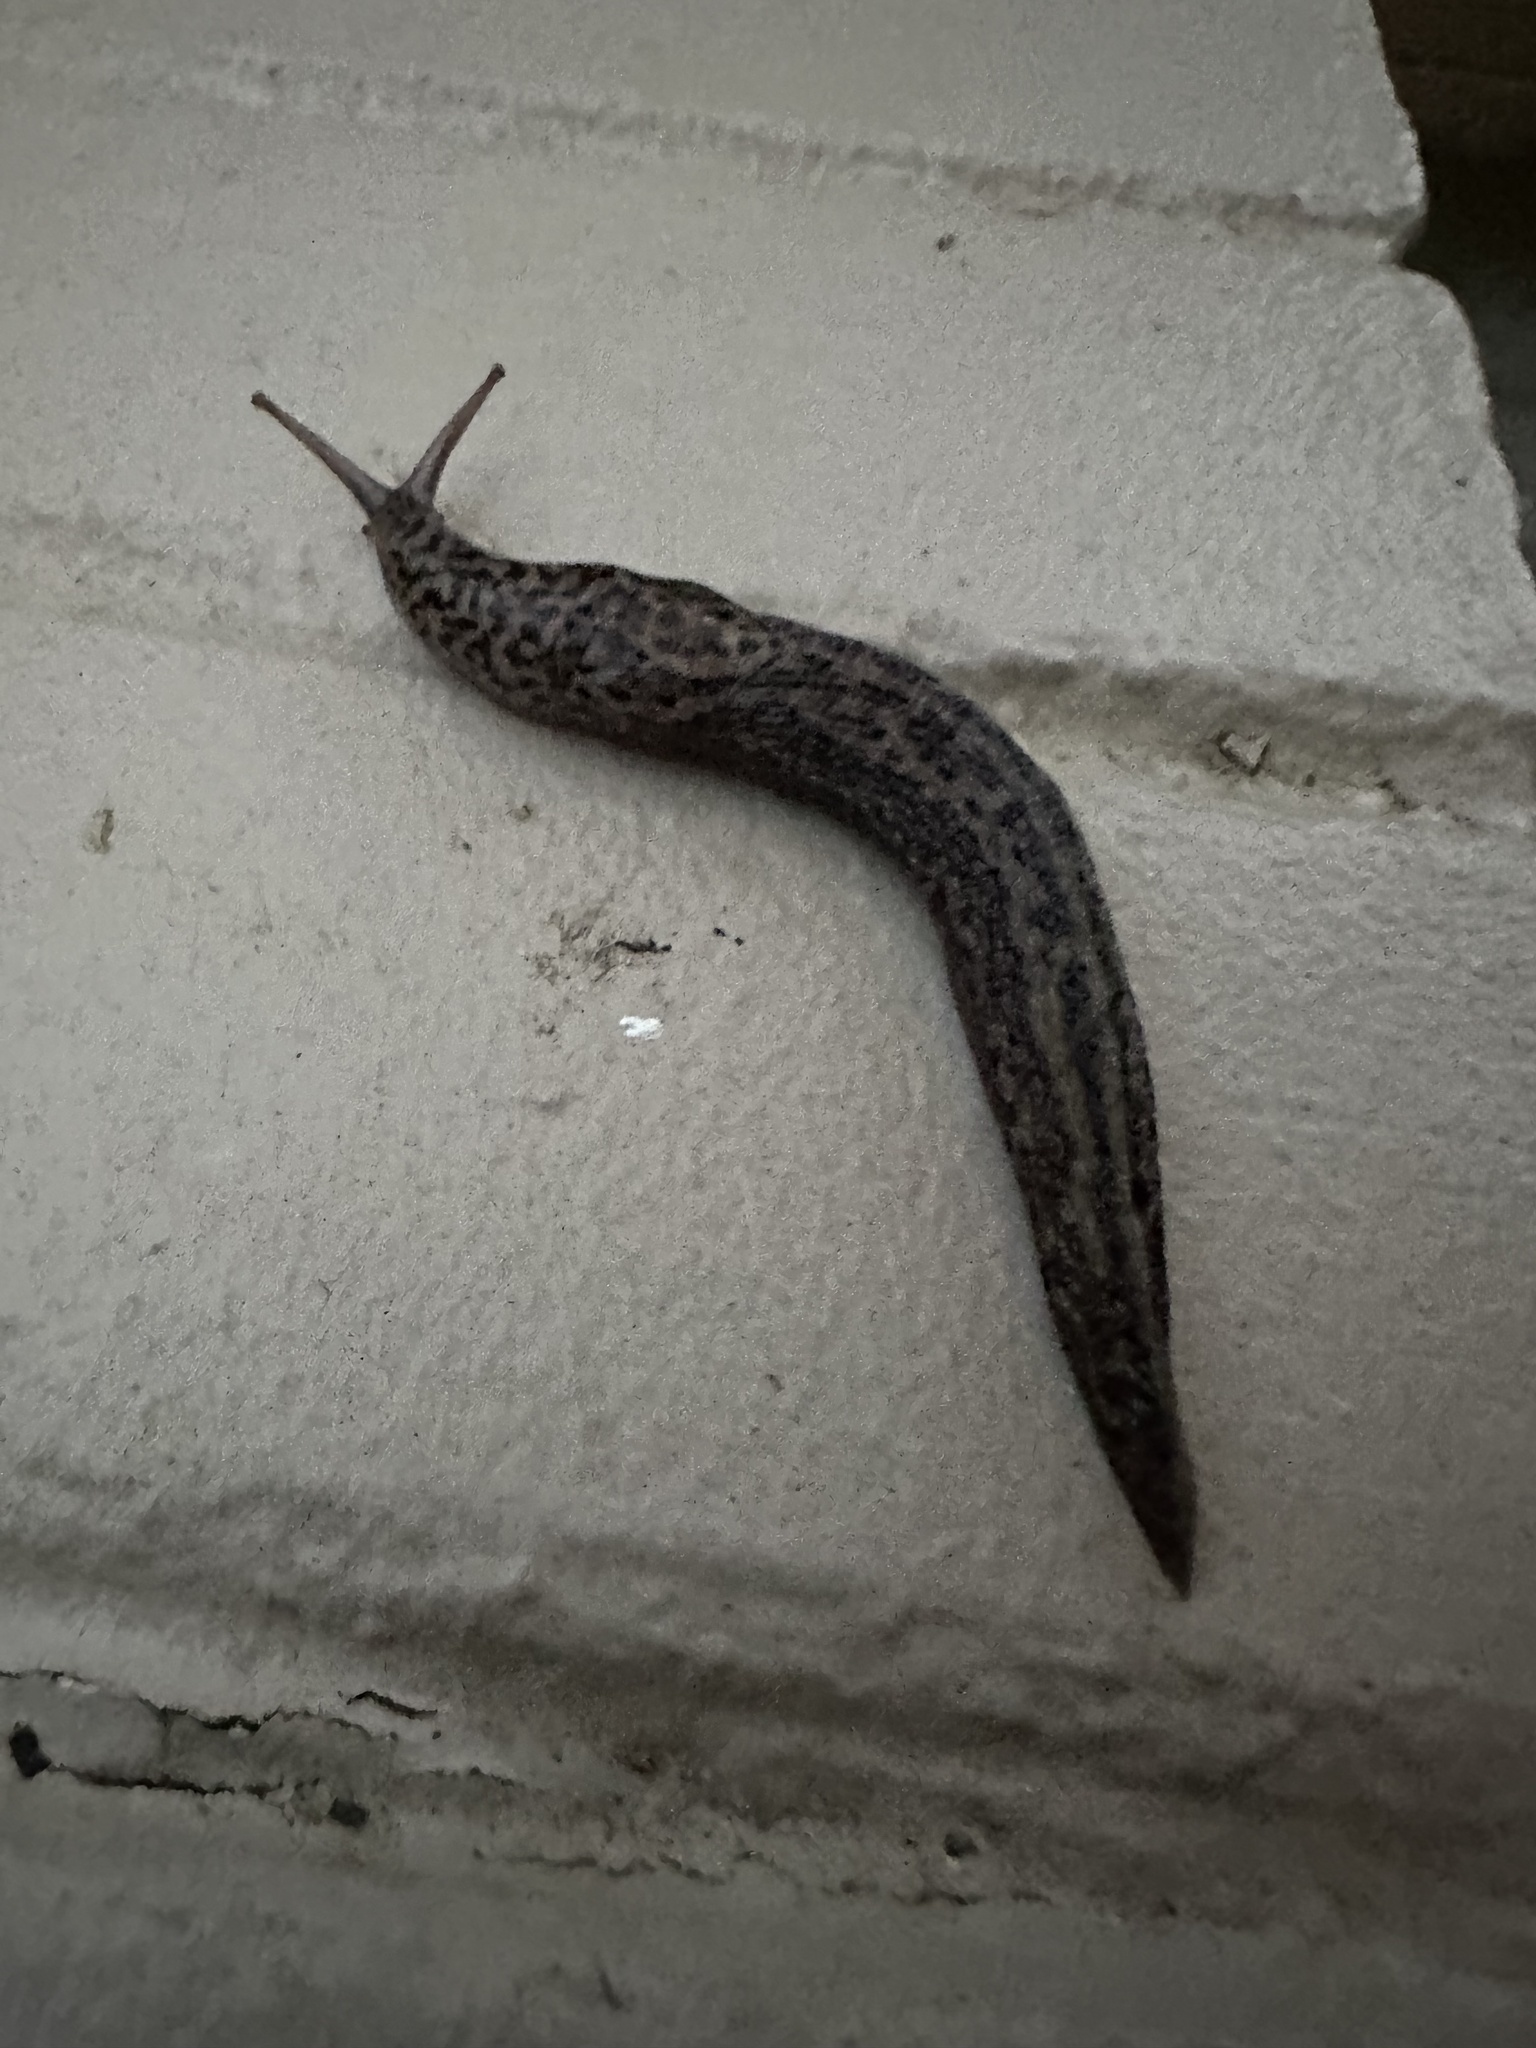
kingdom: Animalia
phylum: Mollusca
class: Gastropoda
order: Stylommatophora
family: Limacidae
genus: Limax
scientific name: Limax maximus
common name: Great grey slug
